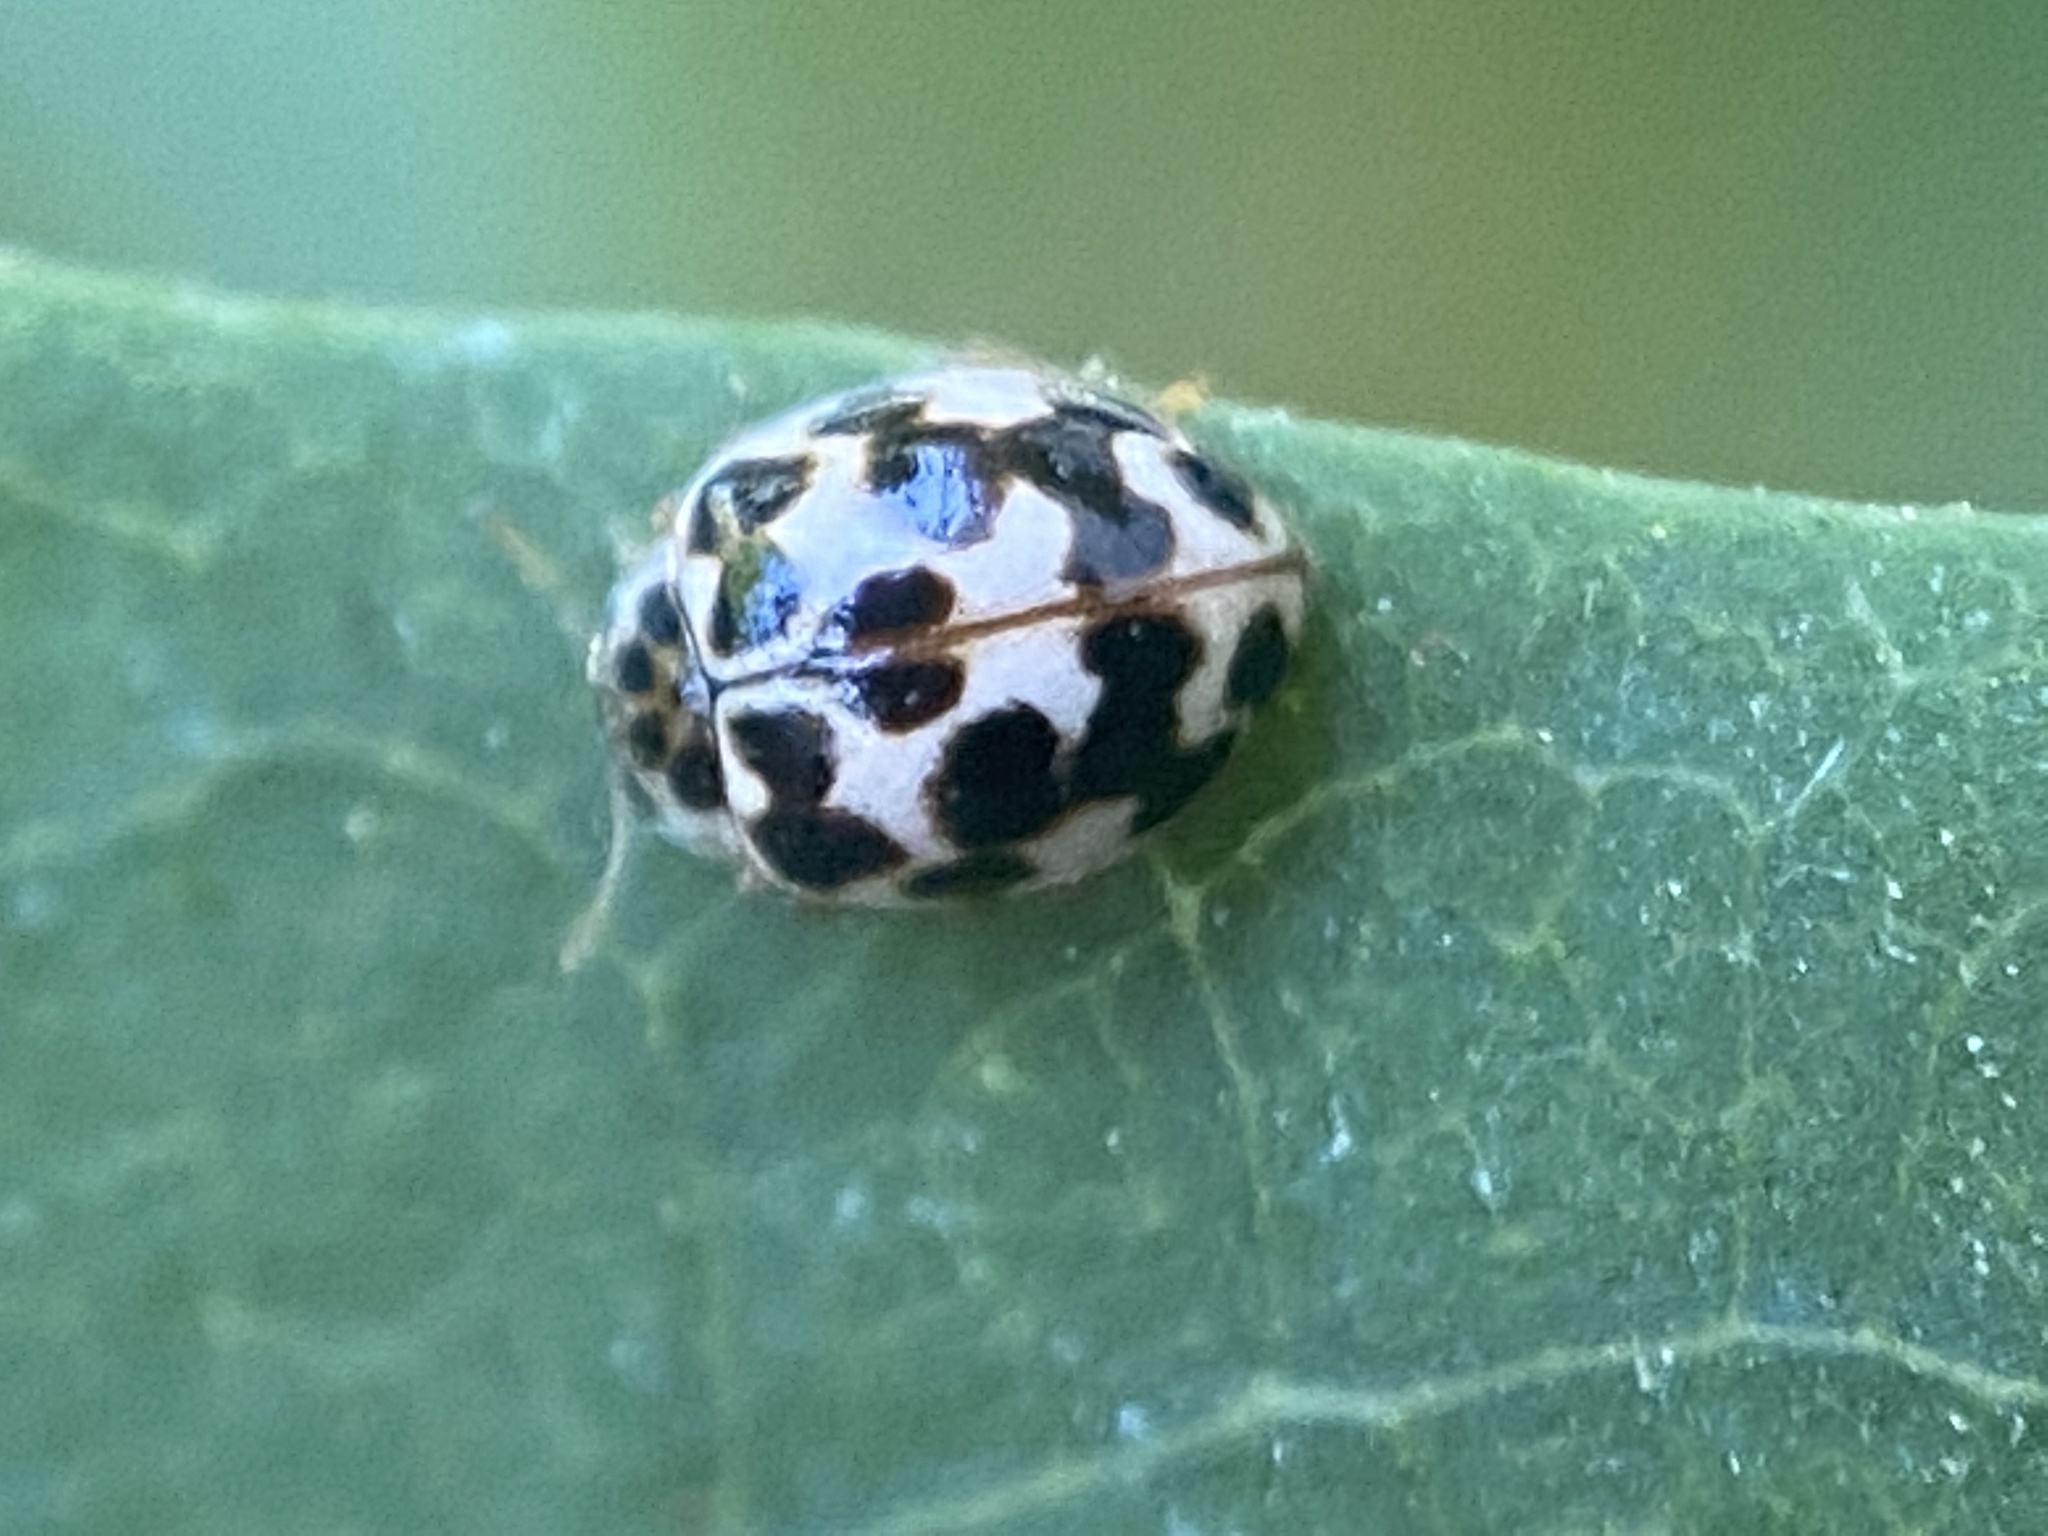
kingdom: Animalia
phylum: Arthropoda
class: Insecta
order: Coleoptera
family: Coccinellidae
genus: Psyllobora
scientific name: Psyllobora vigintimaculata
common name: Ladybird beetle
